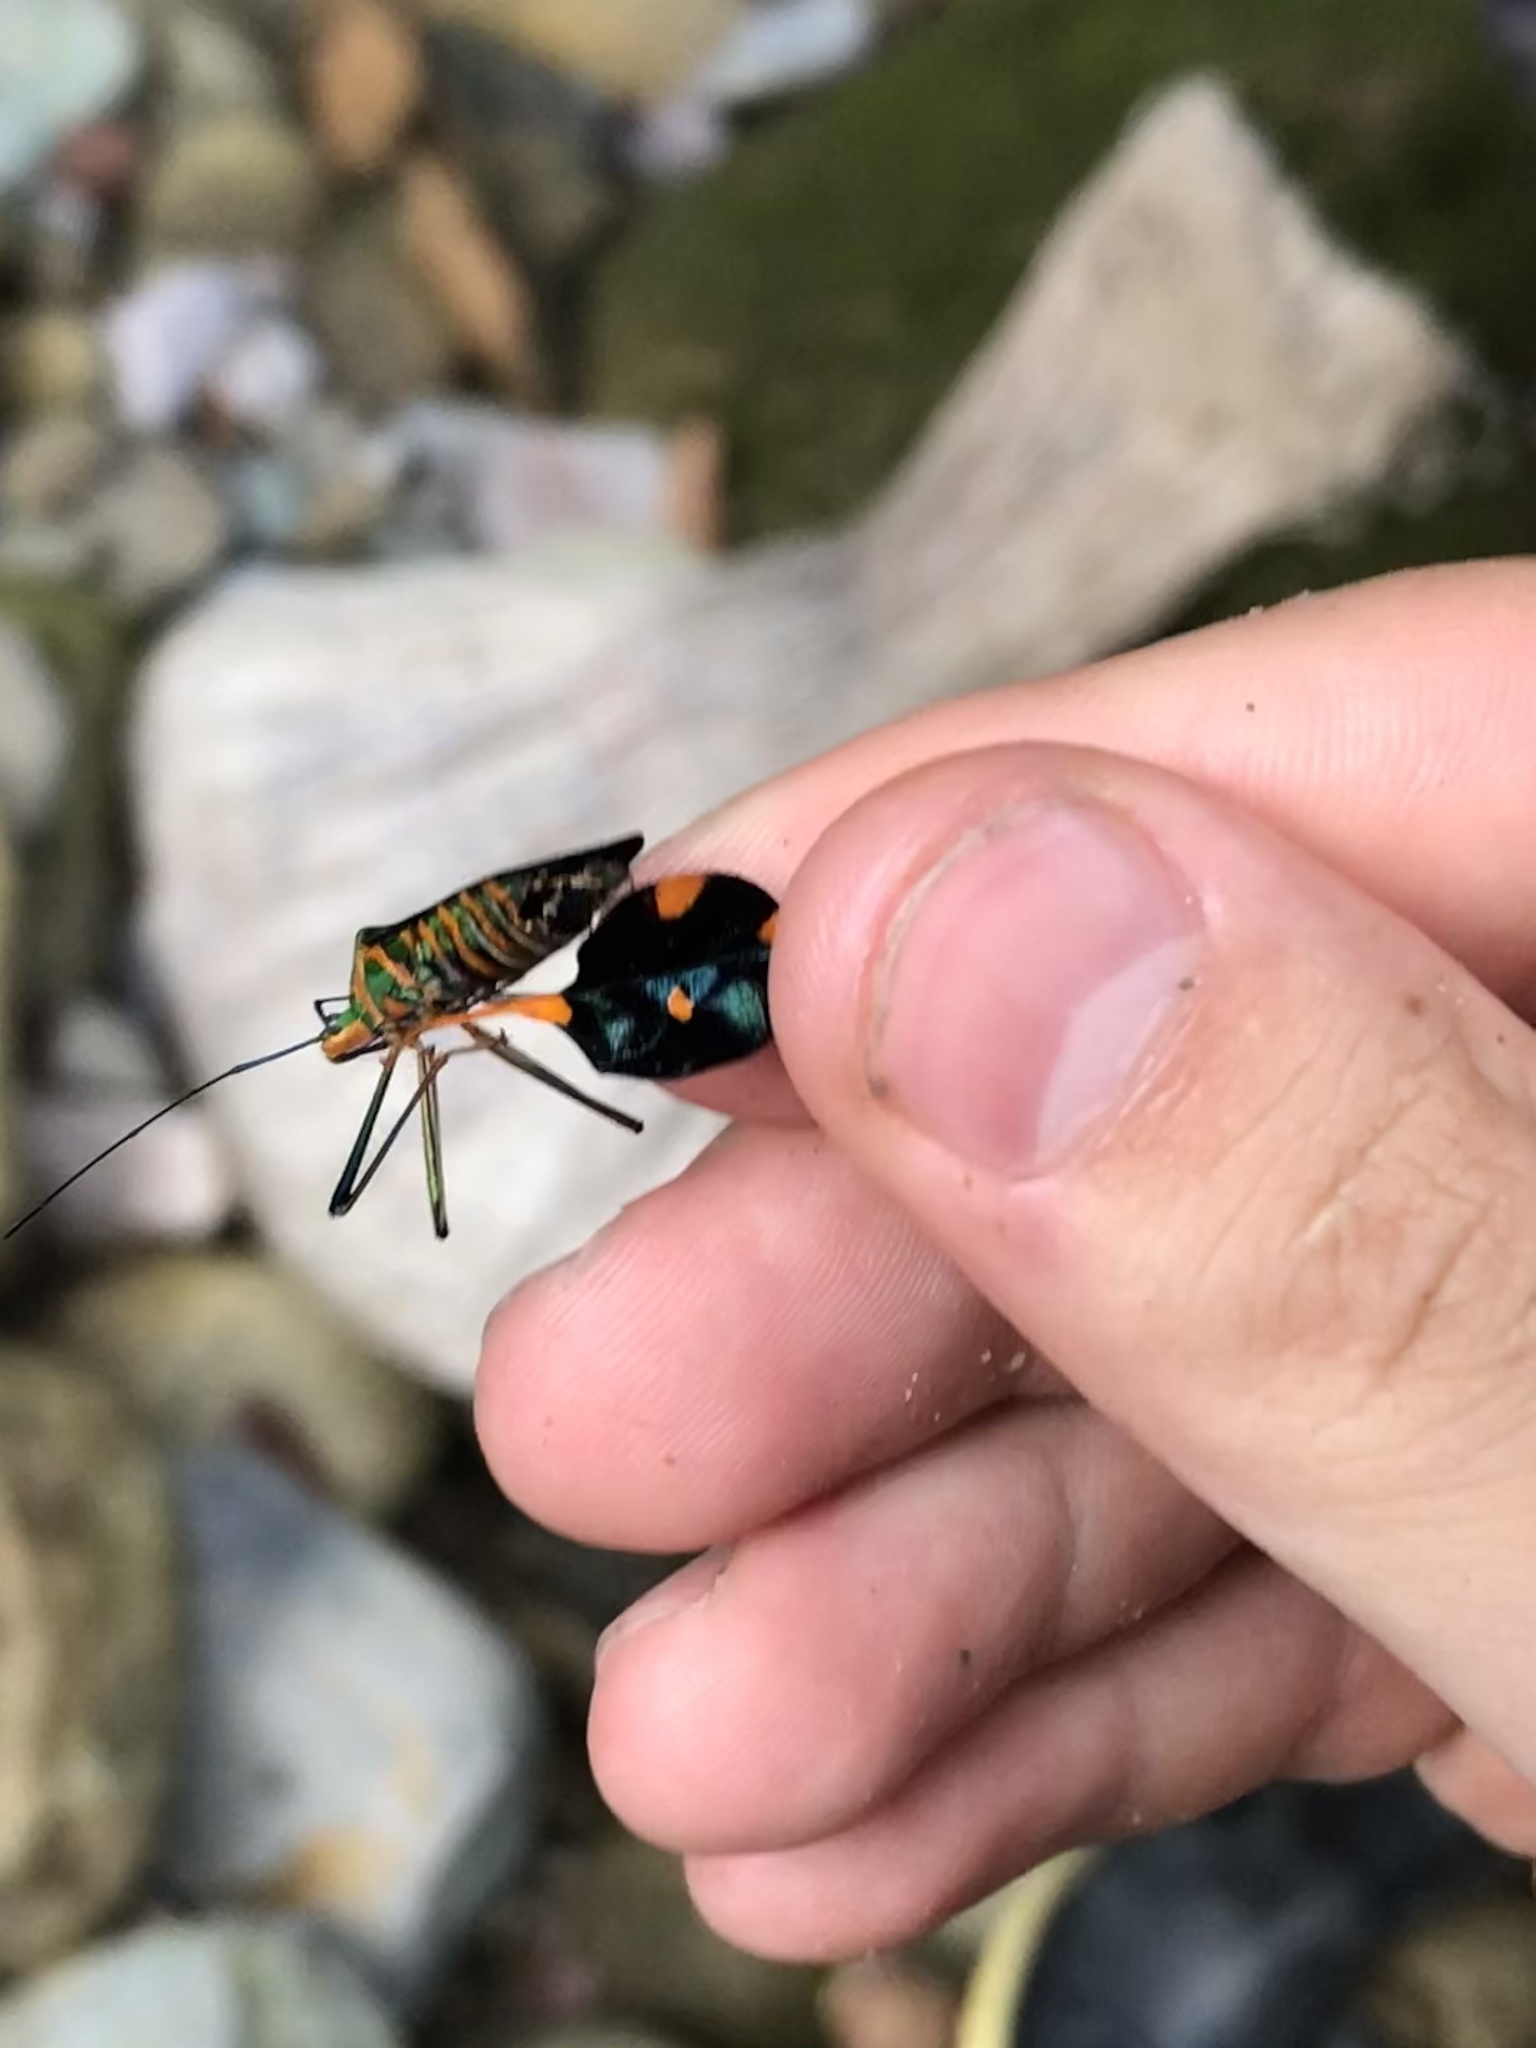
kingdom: Animalia
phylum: Arthropoda
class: Insecta
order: Hemiptera
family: Coreidae
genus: Diactor
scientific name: Diactor bilineatus
